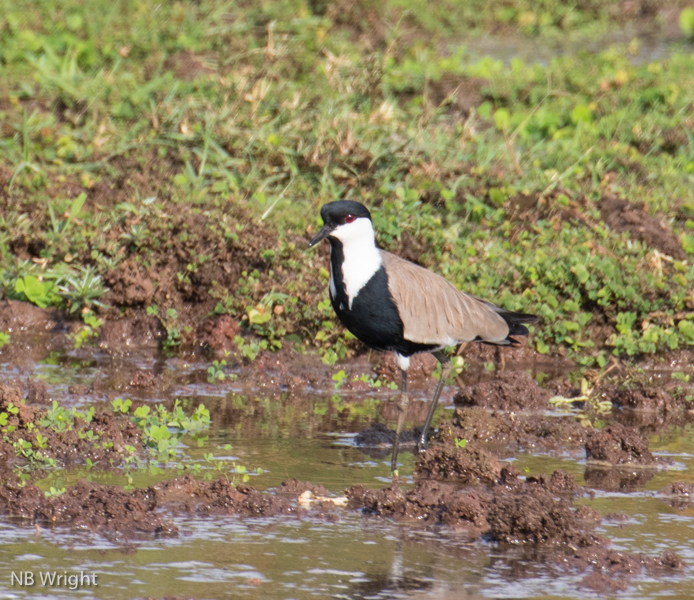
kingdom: Animalia
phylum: Chordata
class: Aves
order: Charadriiformes
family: Charadriidae
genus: Vanellus
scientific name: Vanellus spinosus
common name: Spur-winged lapwing
